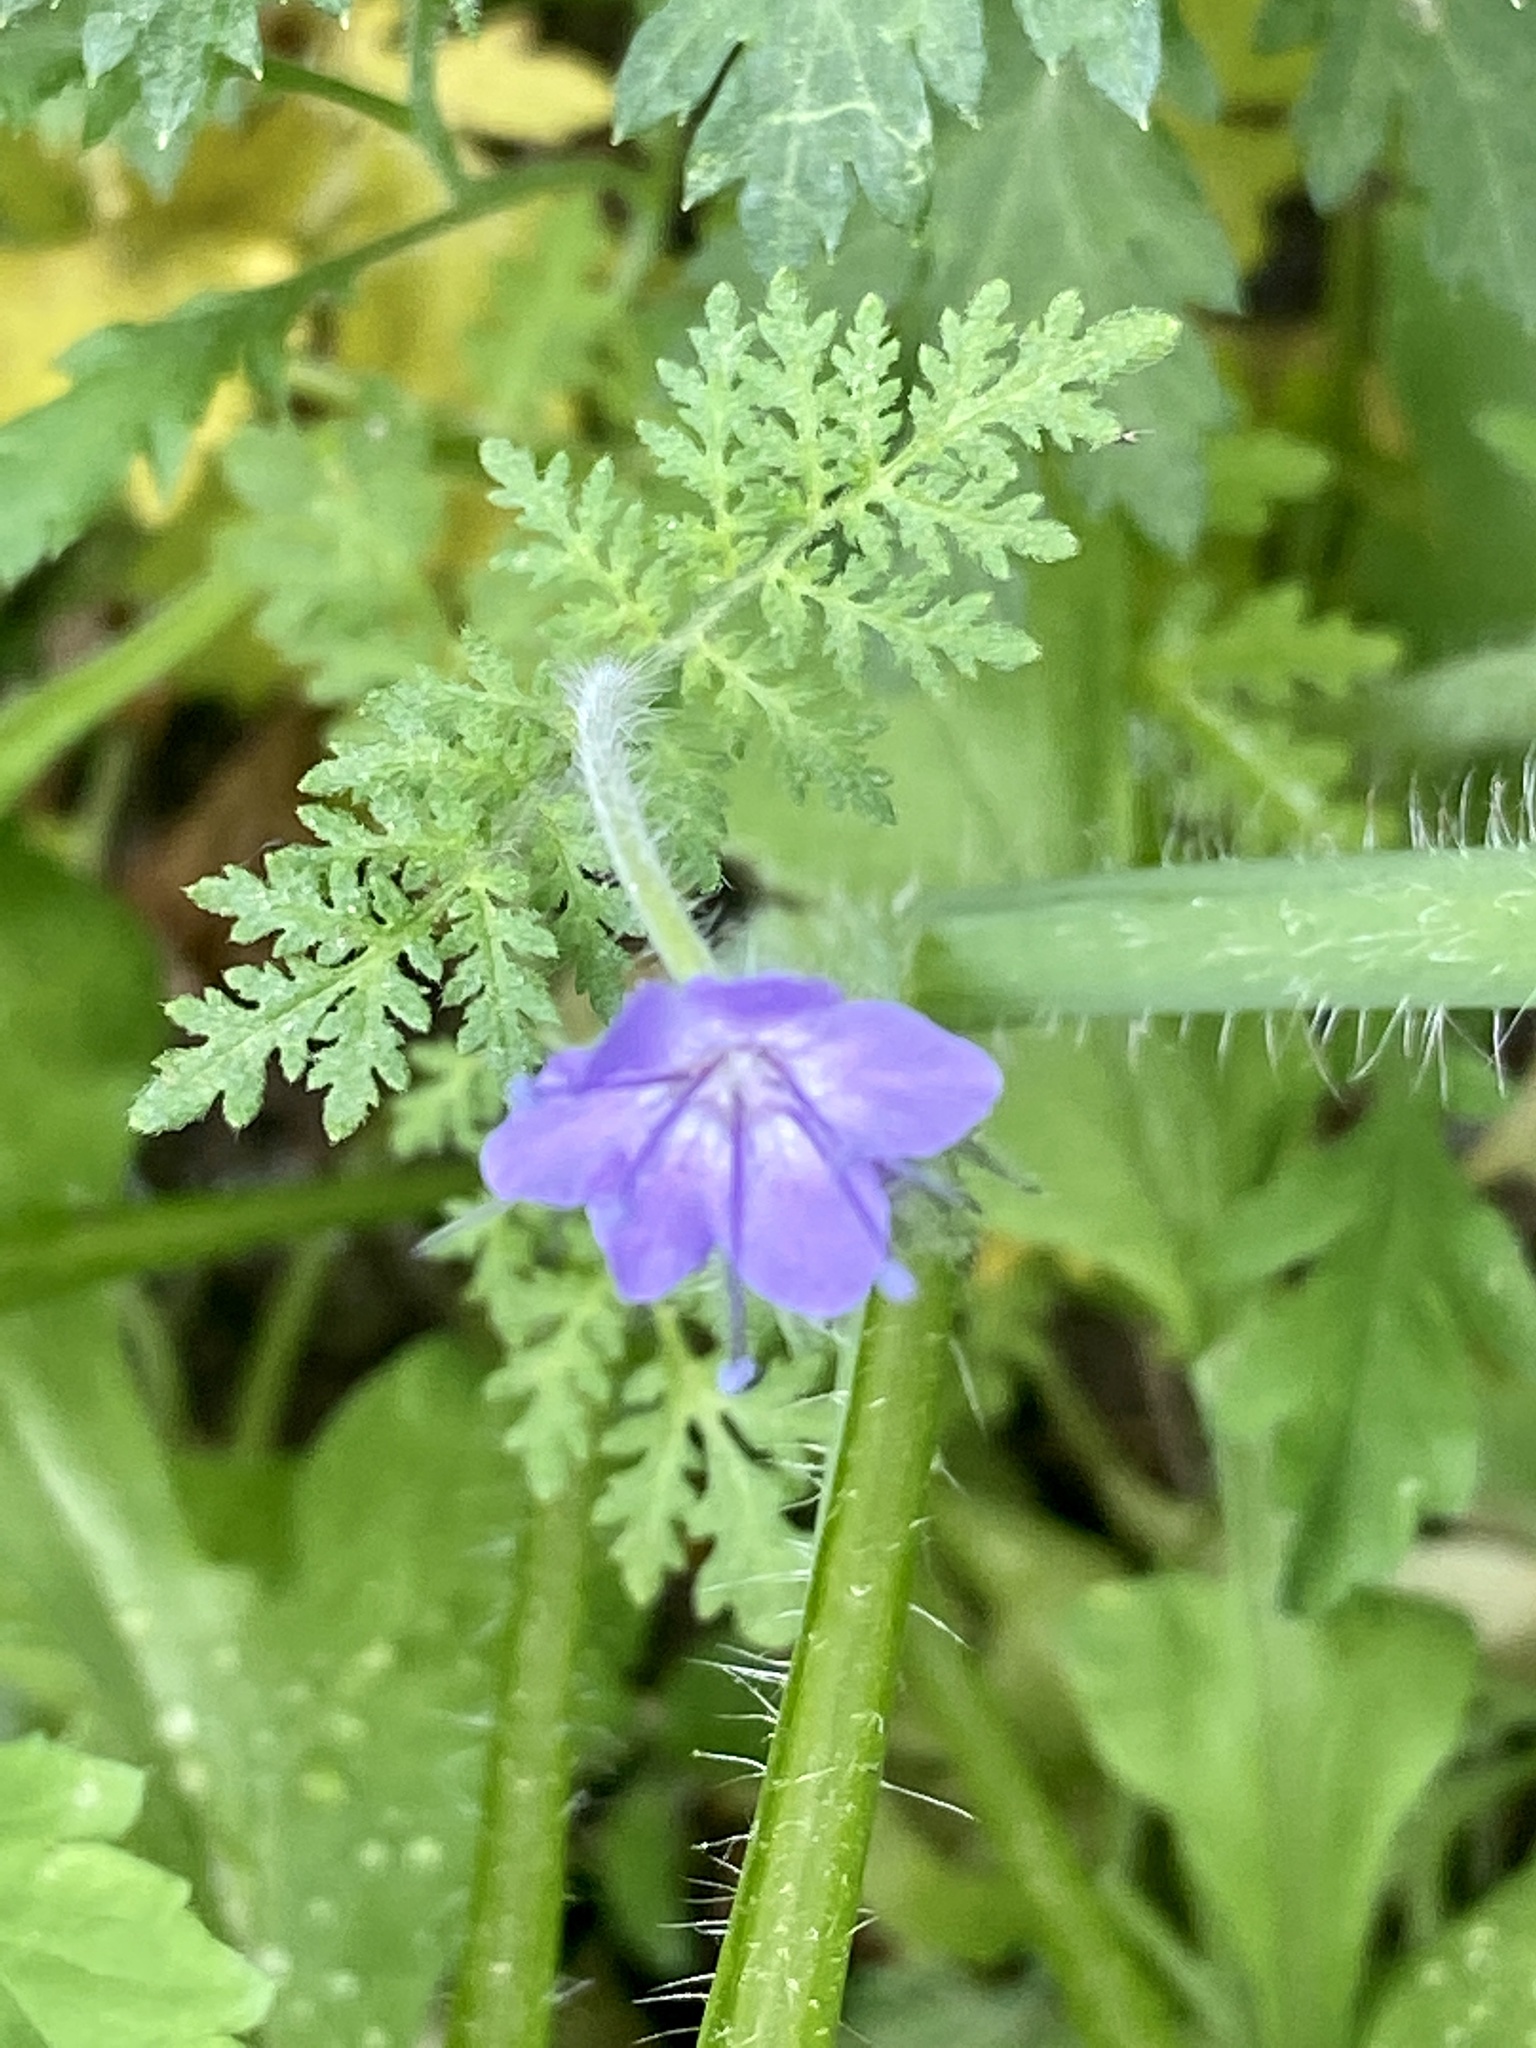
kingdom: Plantae
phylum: Tracheophyta
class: Magnoliopsida
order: Boraginales
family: Hydrophyllaceae
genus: Phacelia
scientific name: Phacelia tanacetifolia
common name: Phacelia
